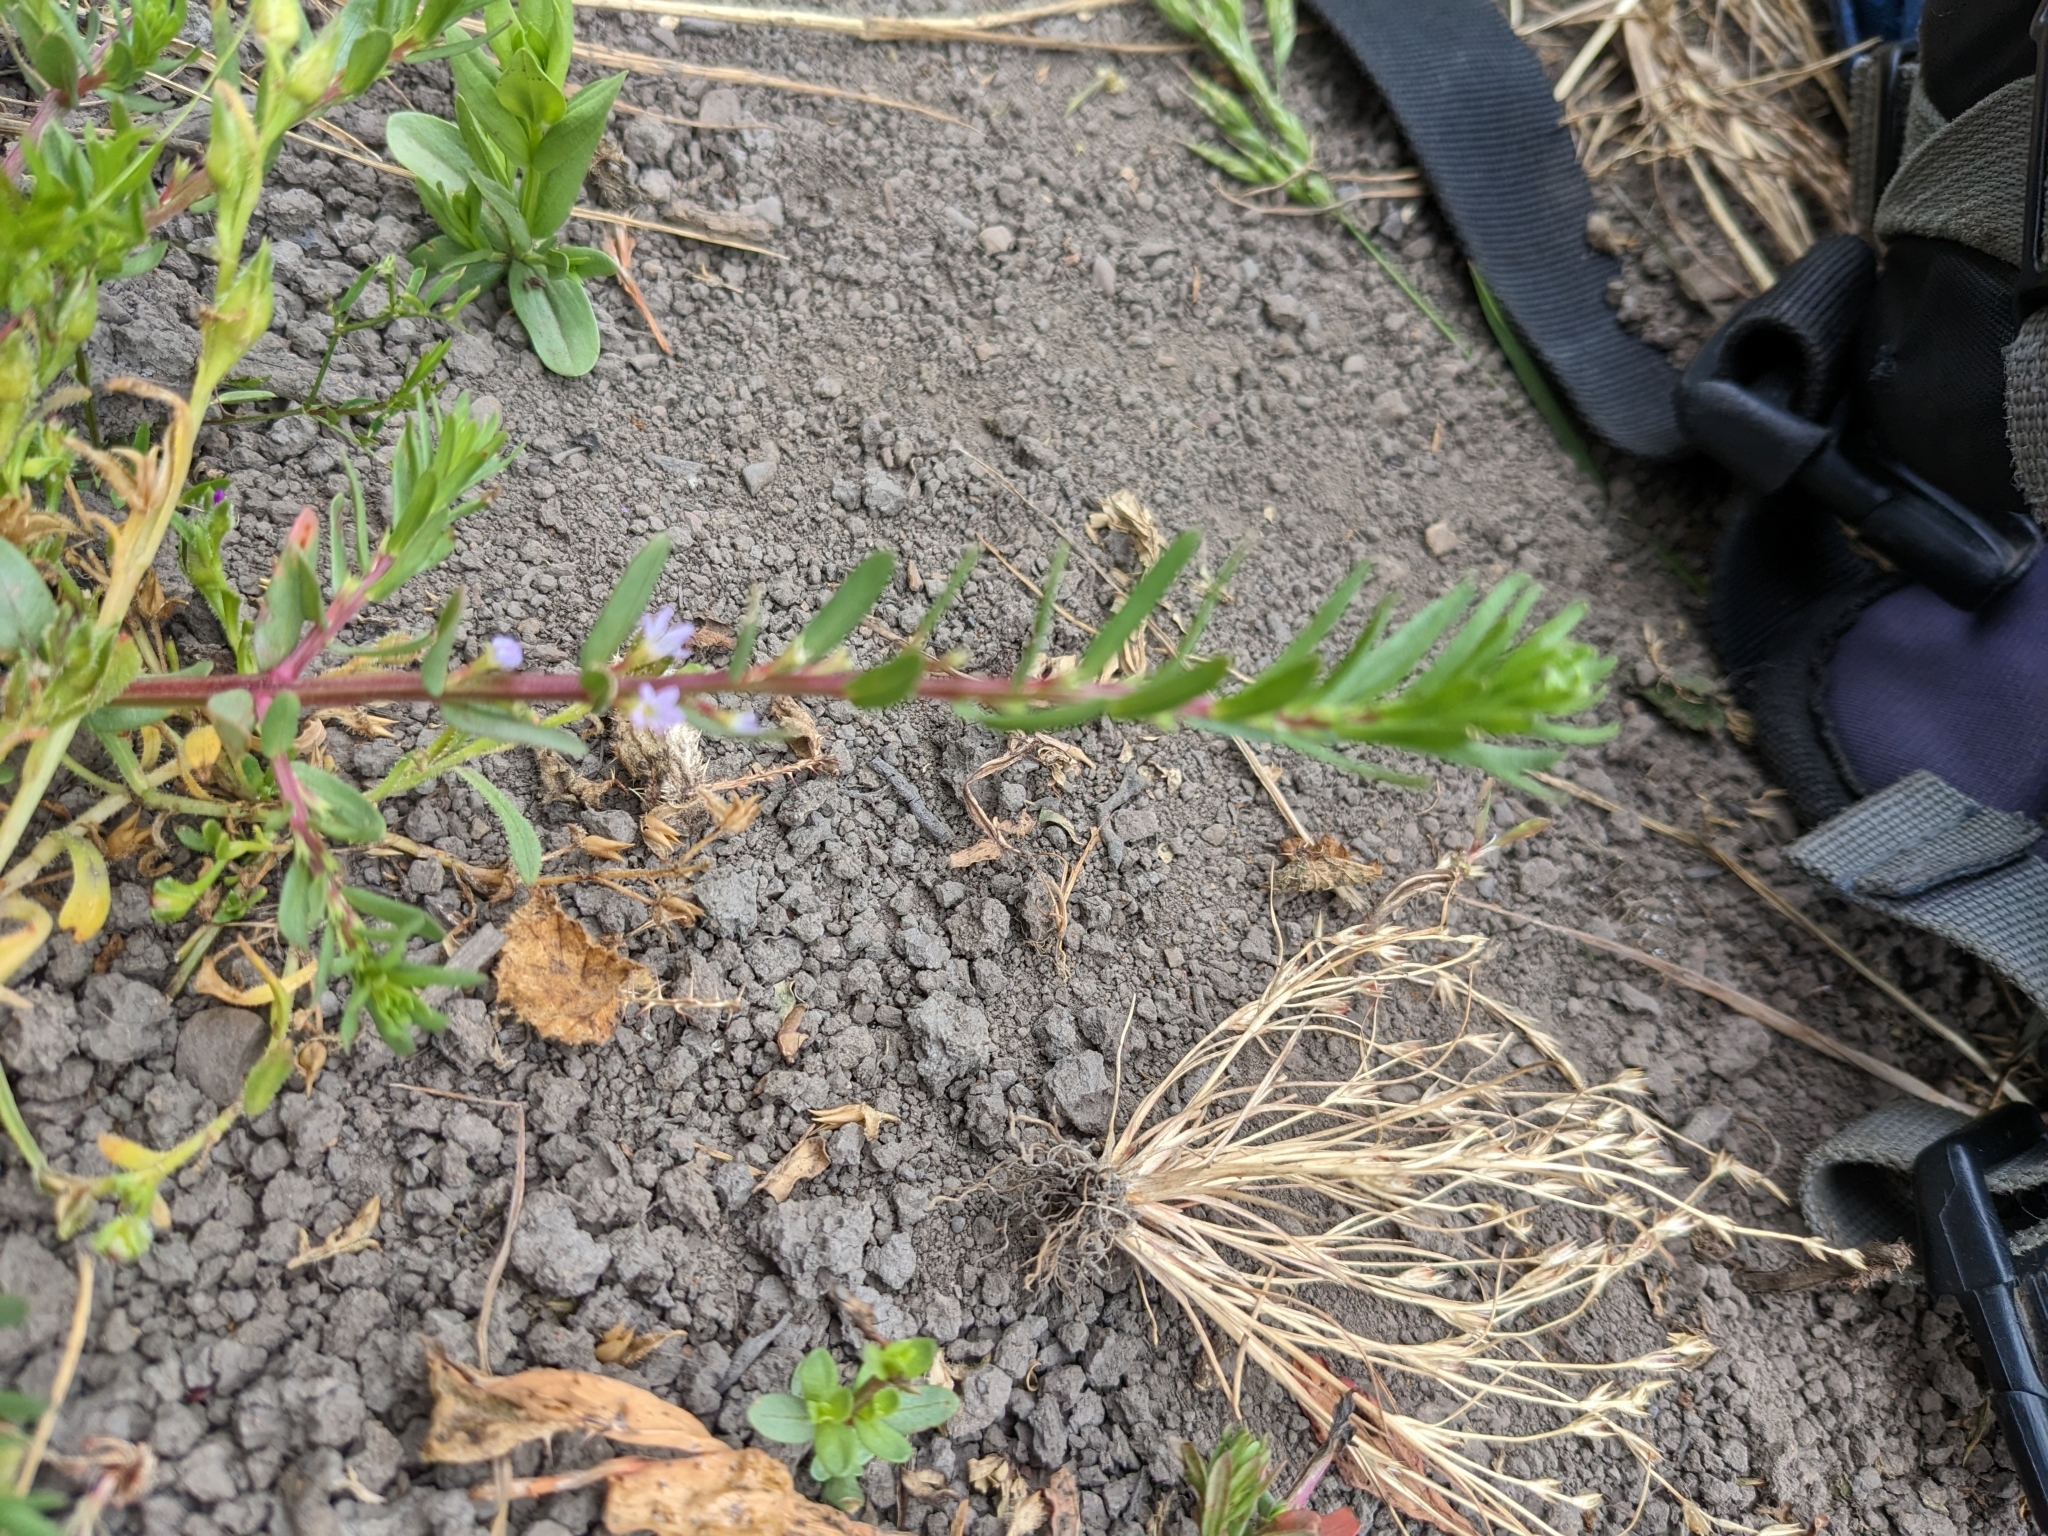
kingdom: Plantae
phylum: Tracheophyta
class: Magnoliopsida
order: Myrtales
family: Lythraceae
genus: Lythrum
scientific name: Lythrum hyssopifolia
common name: Grass-poly
